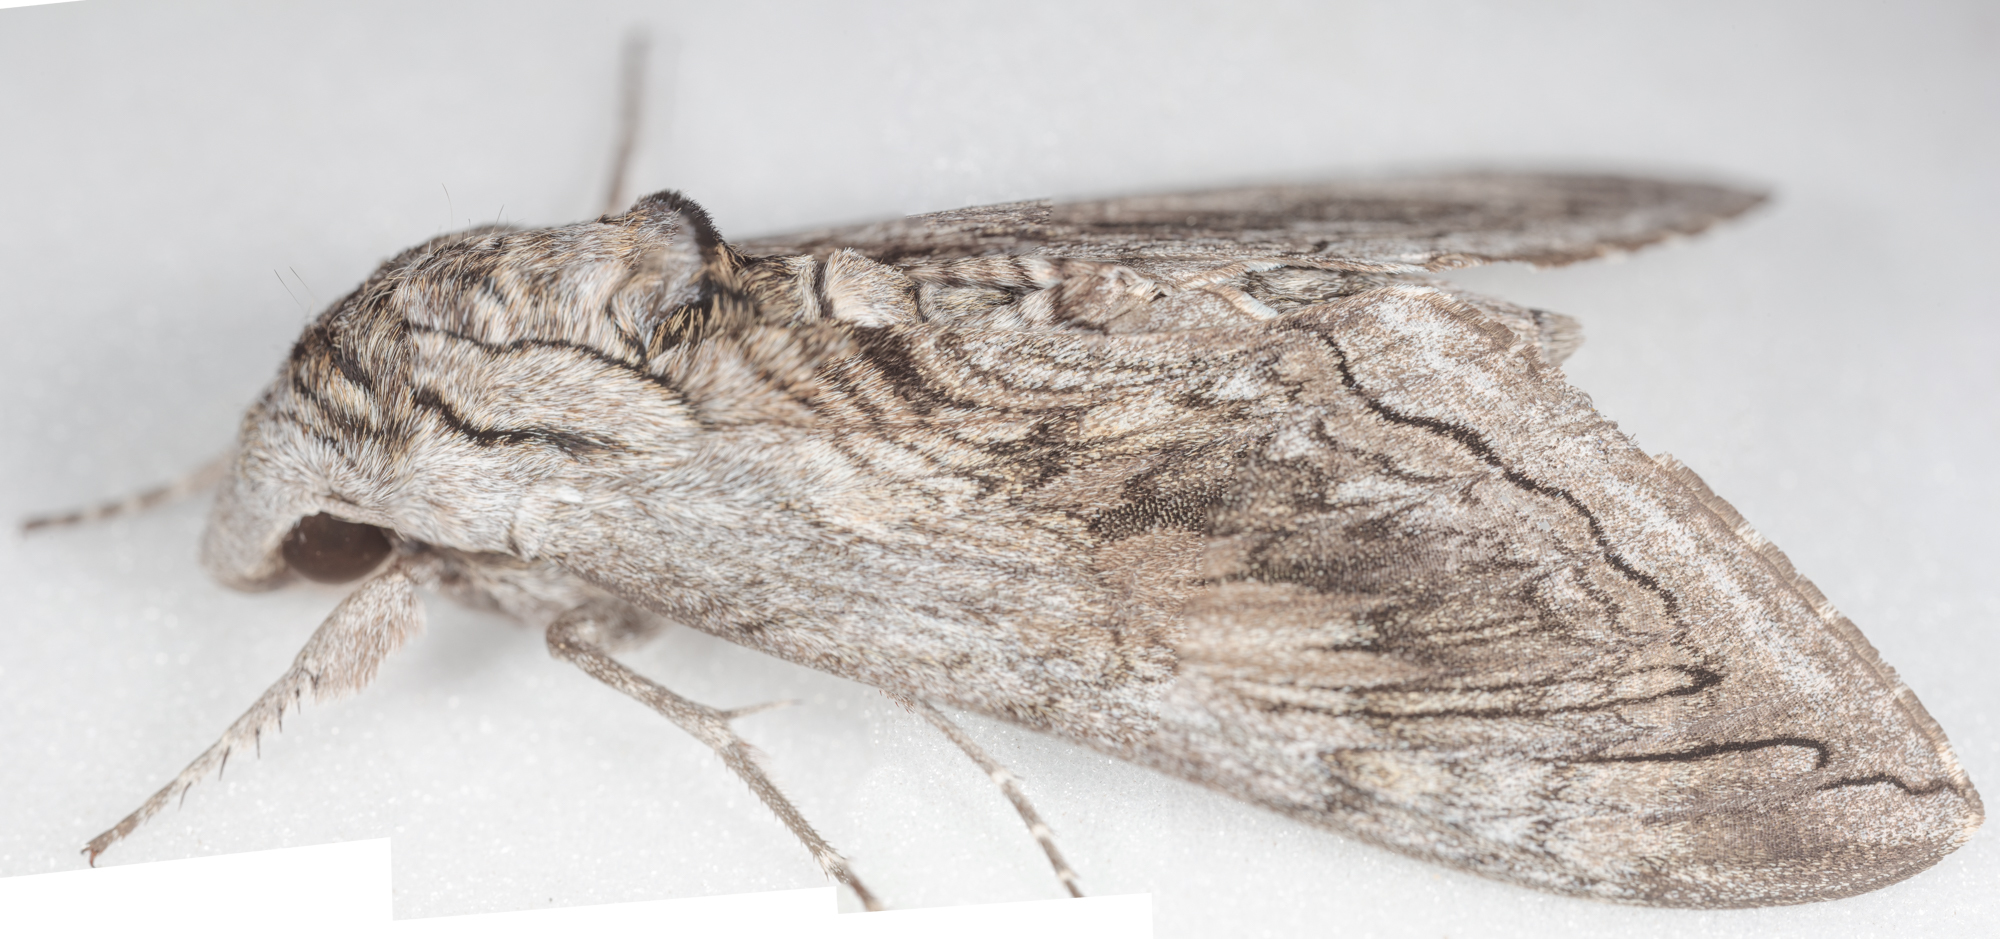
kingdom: Animalia
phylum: Arthropoda
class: Insecta
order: Lepidoptera
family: Sphingidae
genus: Manduca
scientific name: Manduca quinquemaculatus
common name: Five-spotted hawk-moth
